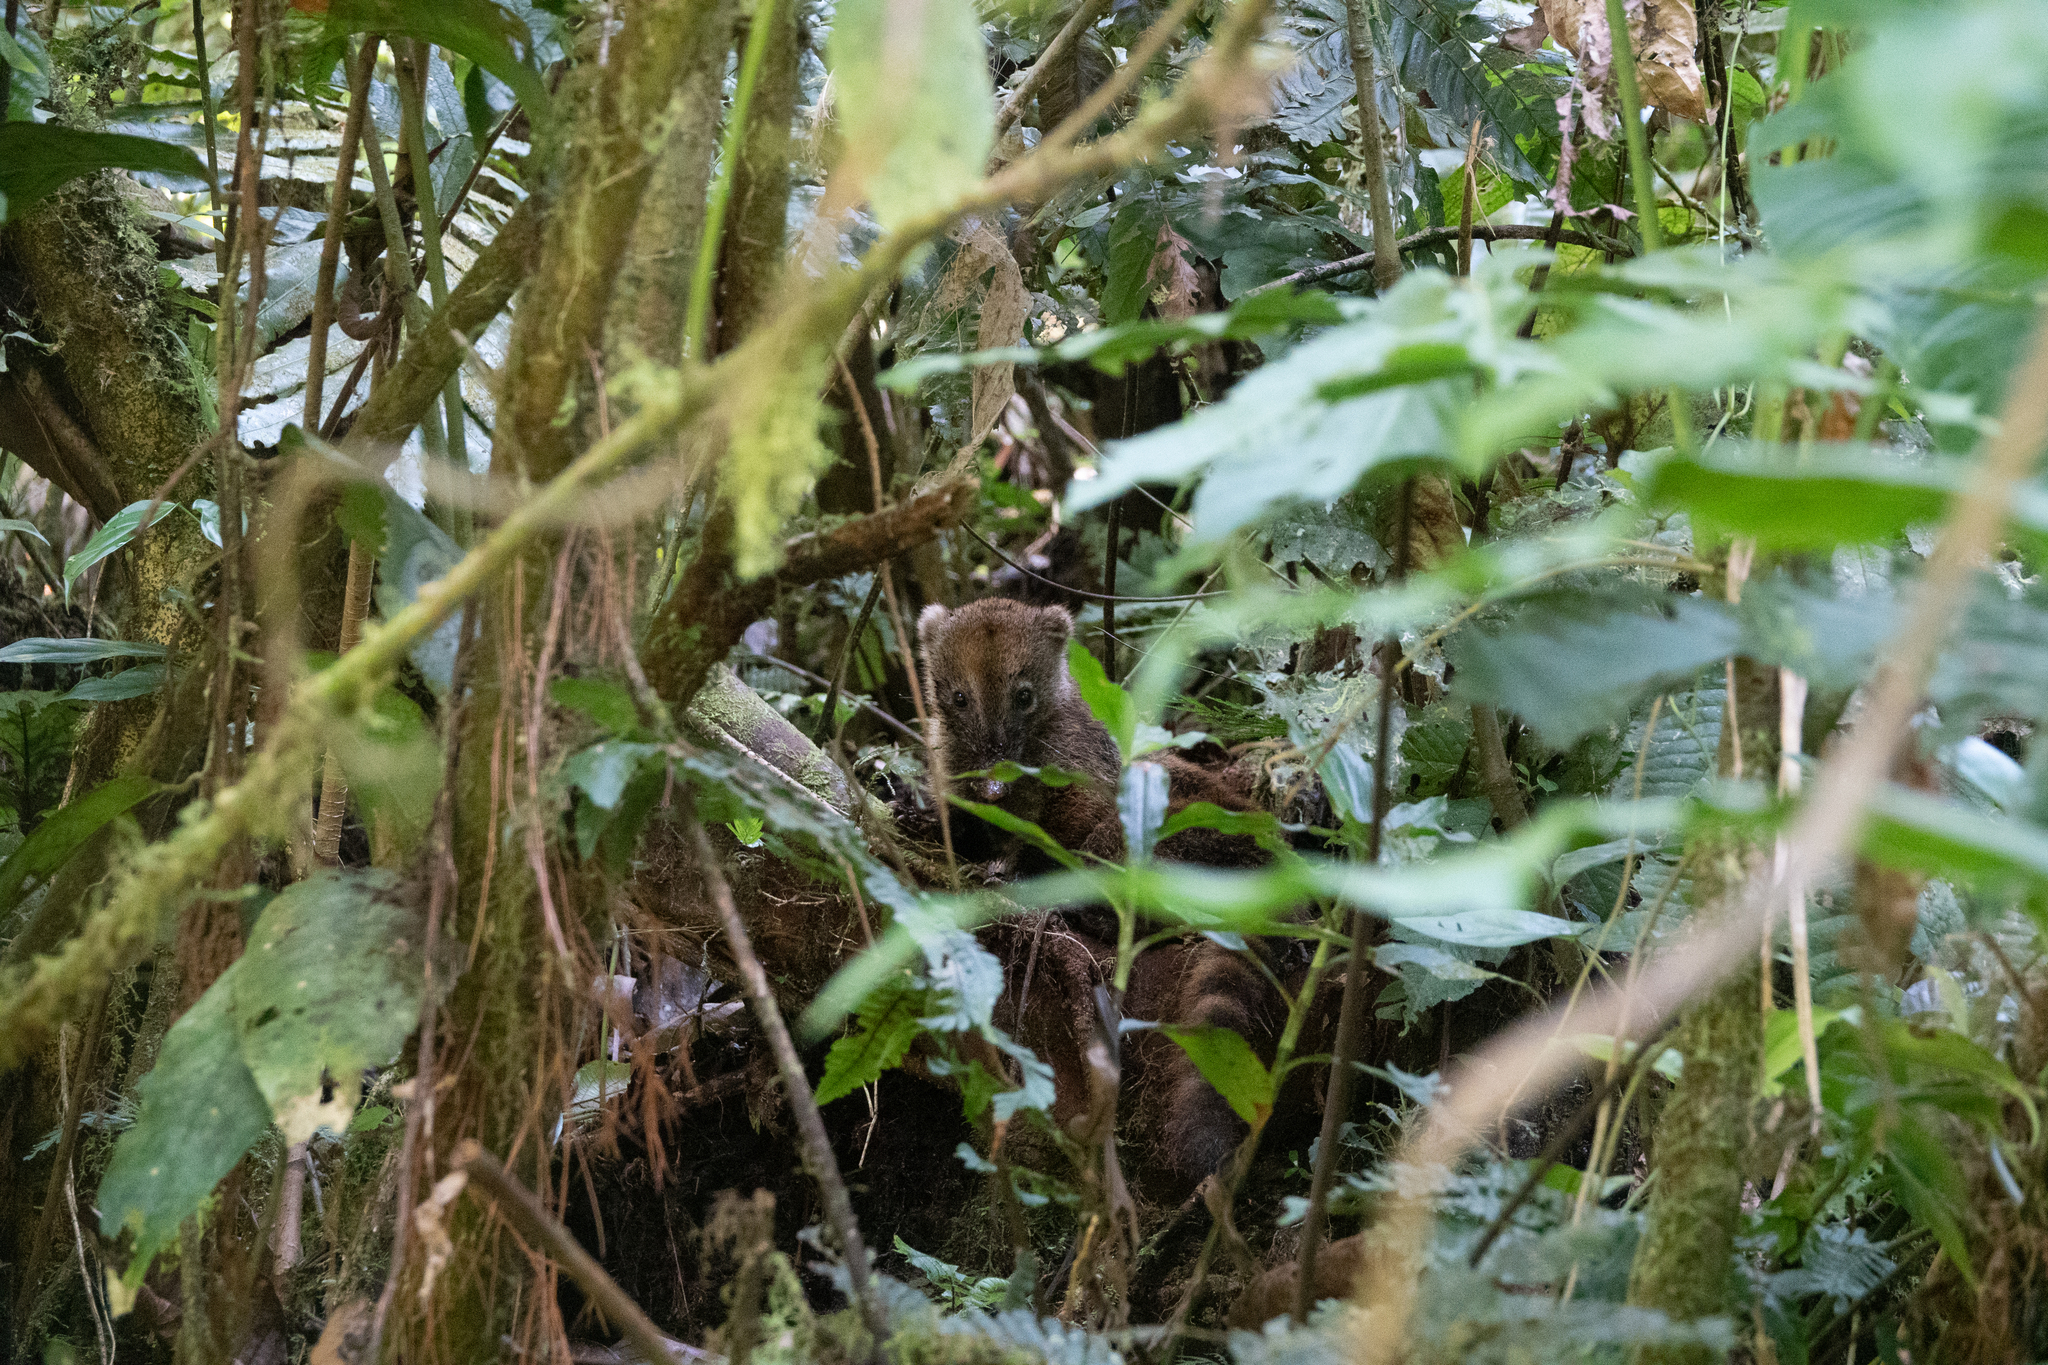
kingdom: Animalia
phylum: Chordata
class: Mammalia
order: Carnivora
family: Procyonidae
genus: Nasua
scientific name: Nasua nasua
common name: South american coati
